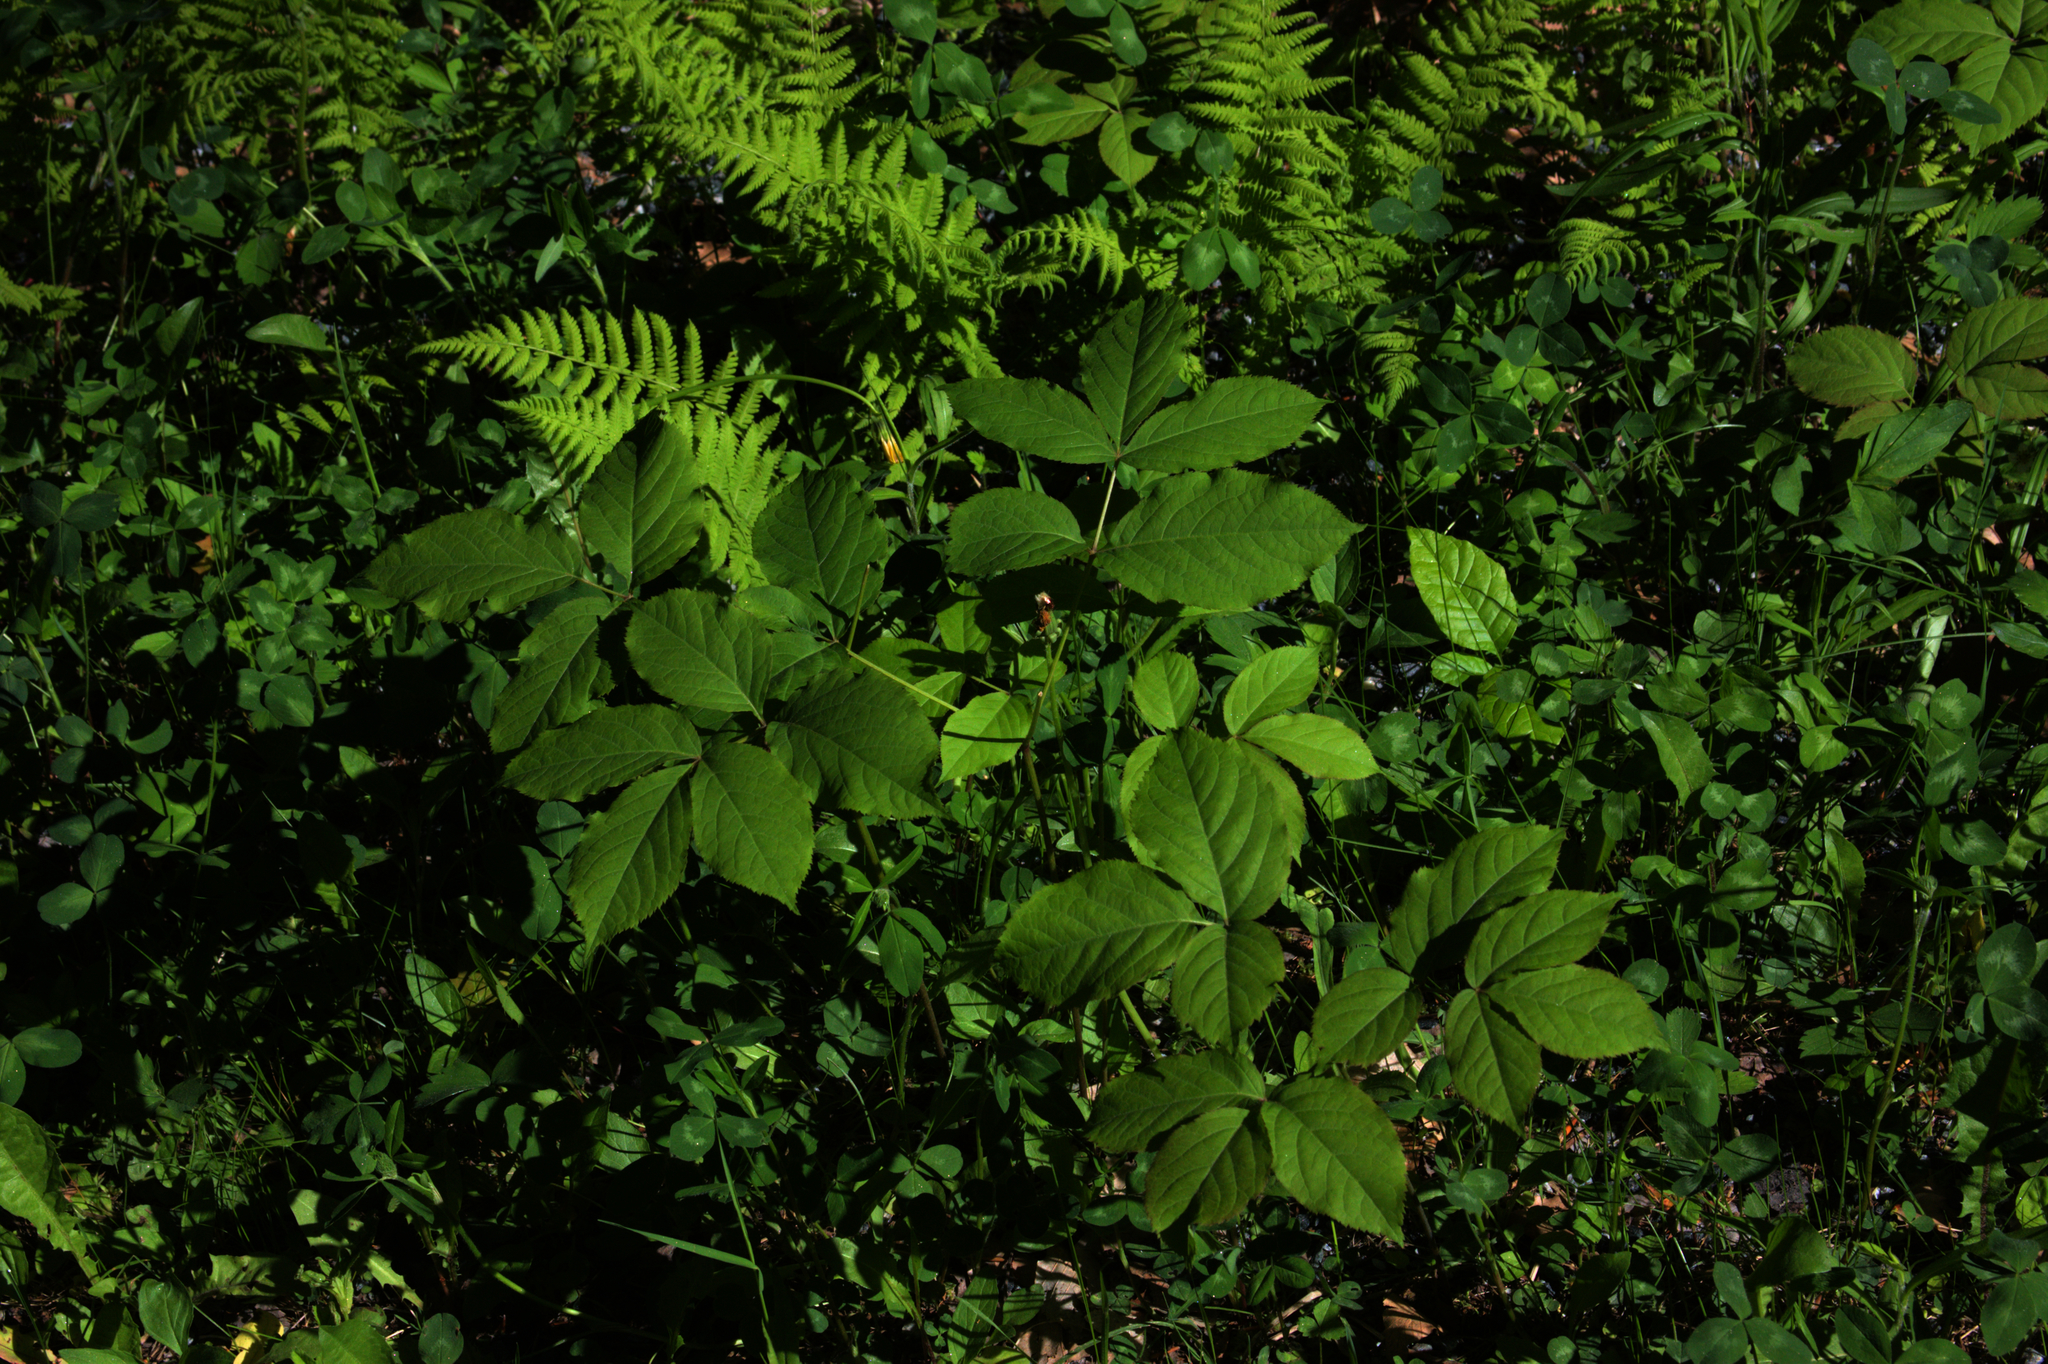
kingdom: Plantae
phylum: Tracheophyta
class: Magnoliopsida
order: Apiales
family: Araliaceae
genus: Aralia
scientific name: Aralia nudicaulis
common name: Wild sarsaparilla
